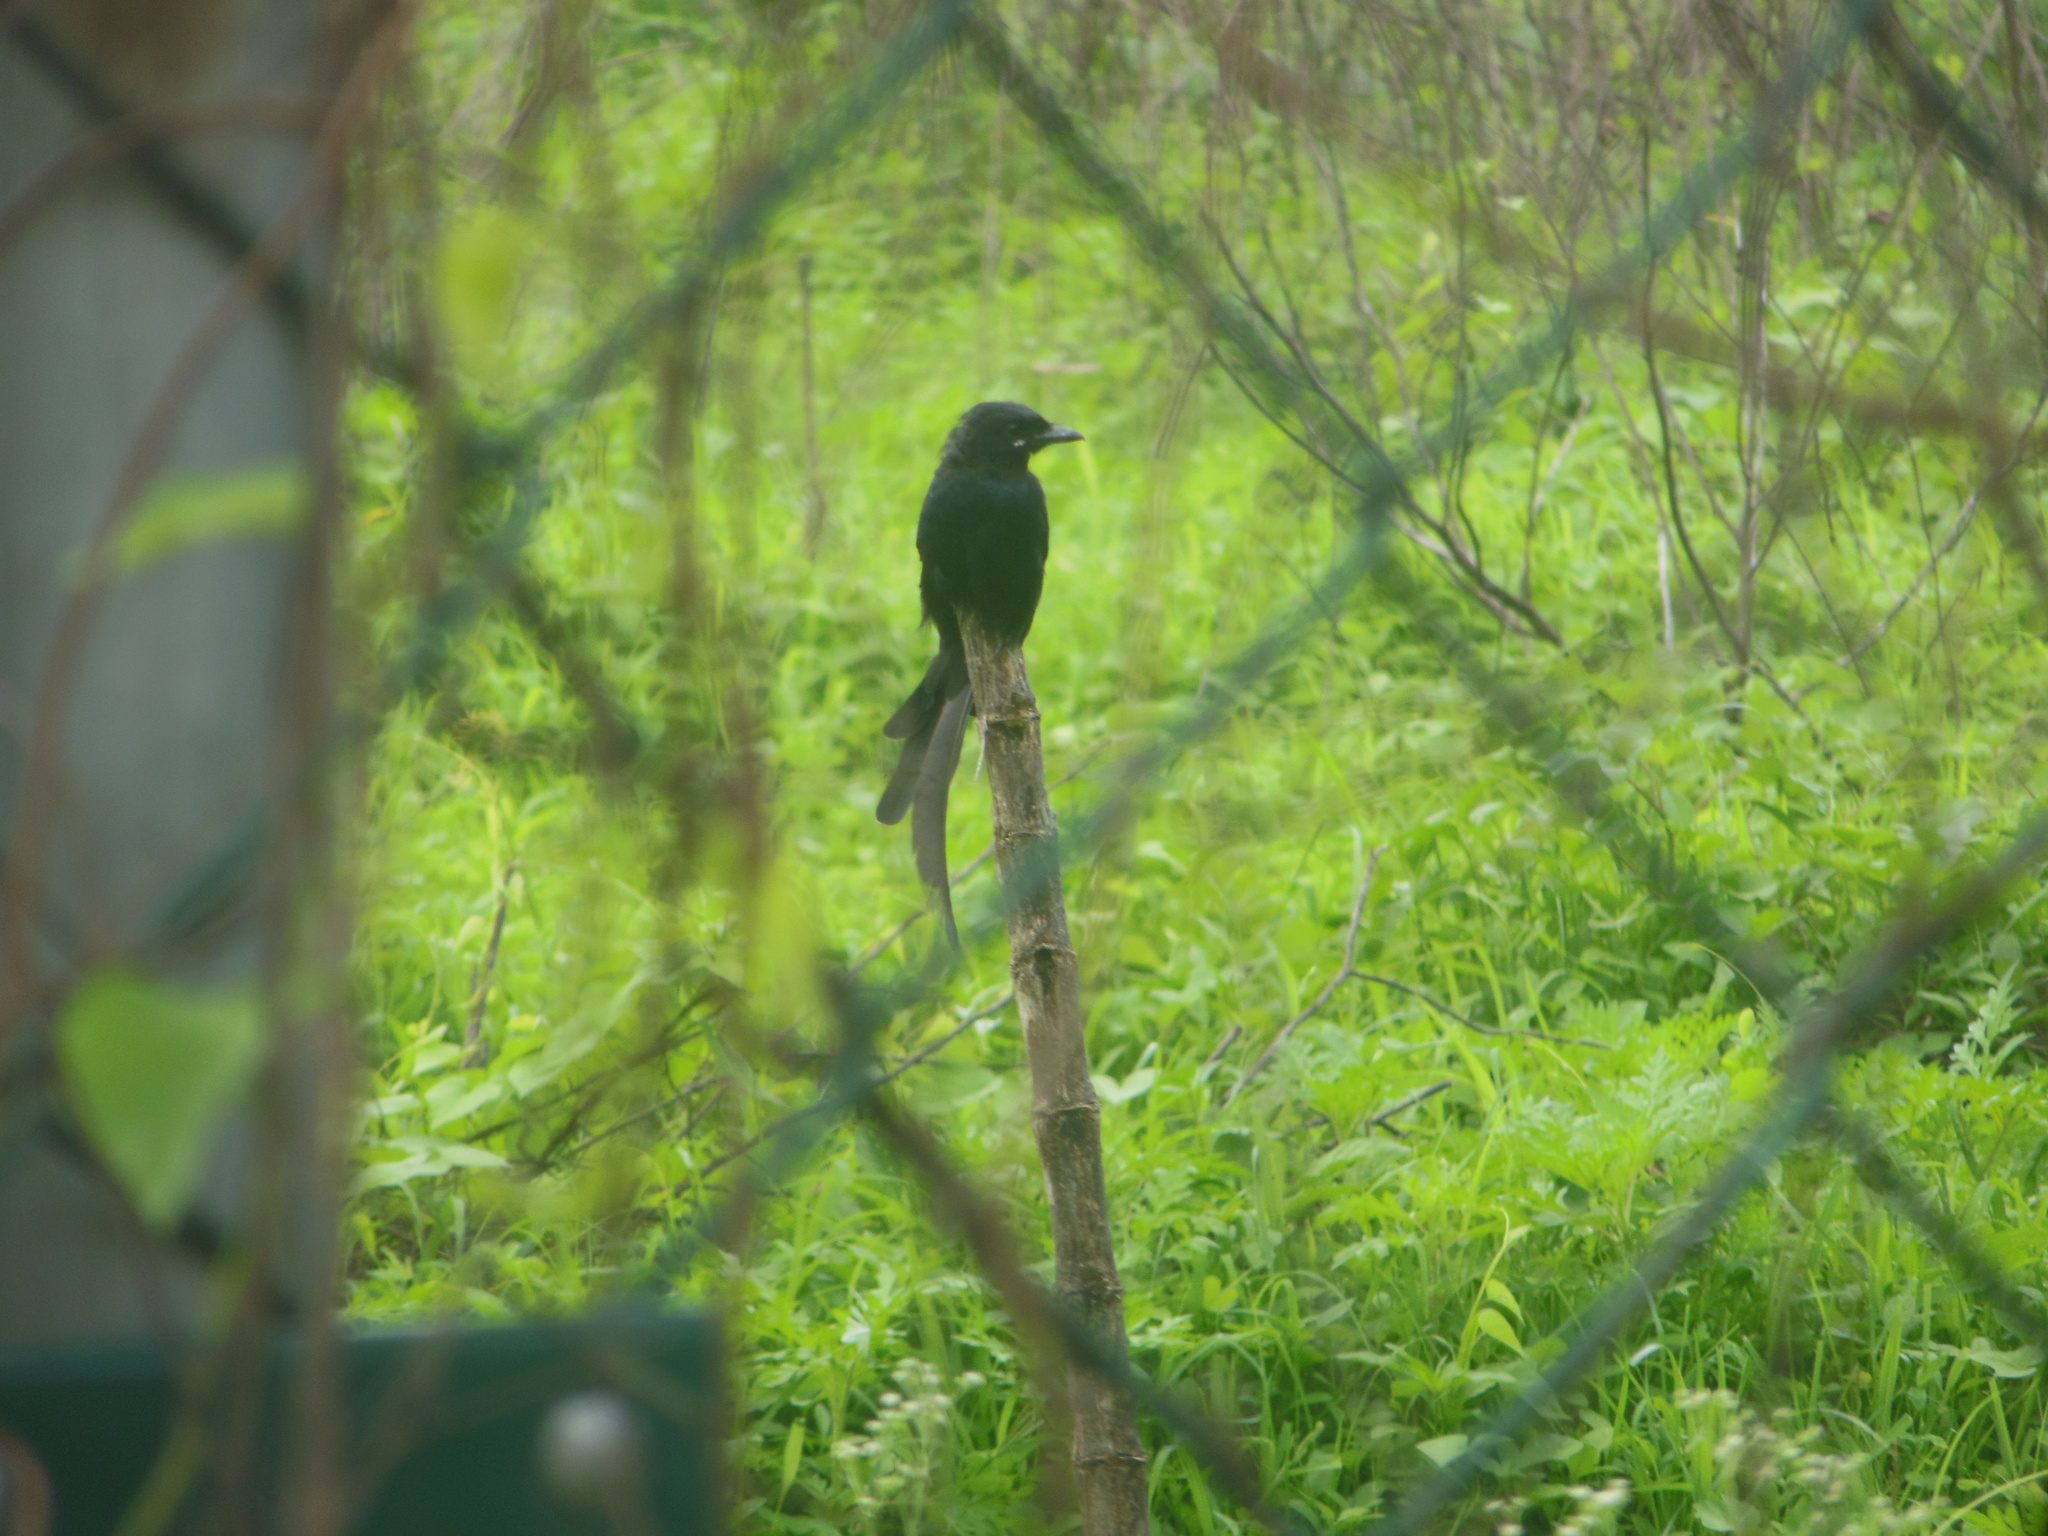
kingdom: Animalia
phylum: Chordata
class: Aves
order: Passeriformes
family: Dicruridae
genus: Dicrurus
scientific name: Dicrurus macrocercus
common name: Black drongo
